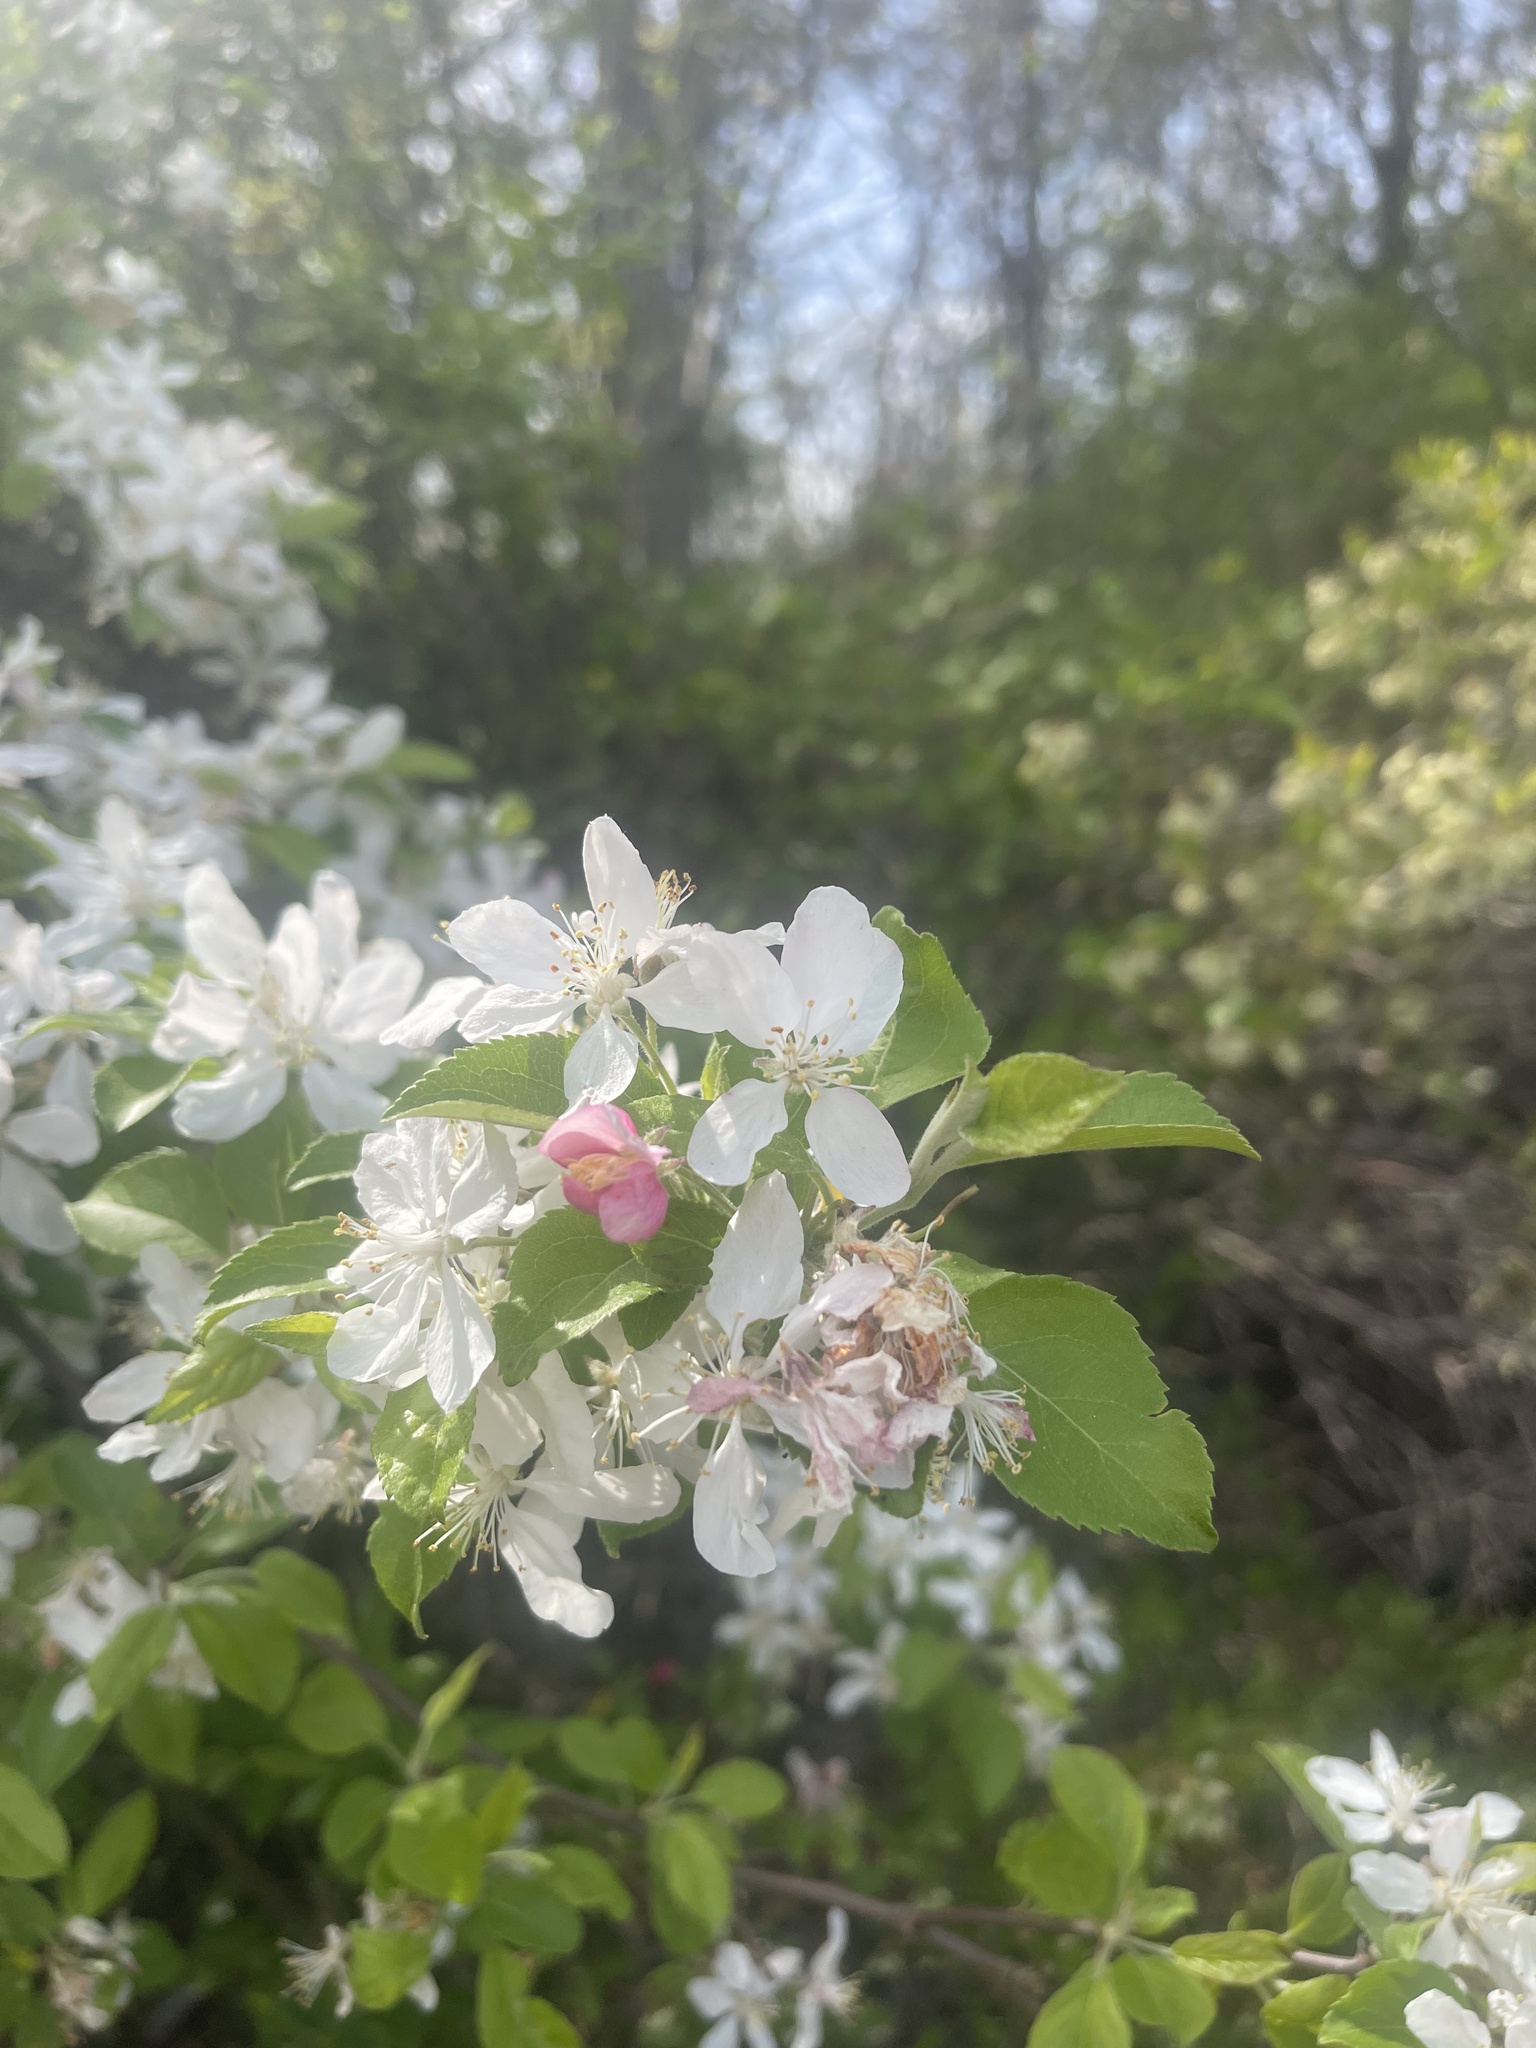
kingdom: Plantae
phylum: Tracheophyta
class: Magnoliopsida
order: Rosales
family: Rosaceae
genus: Malus
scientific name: Malus domestica
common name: Apple
